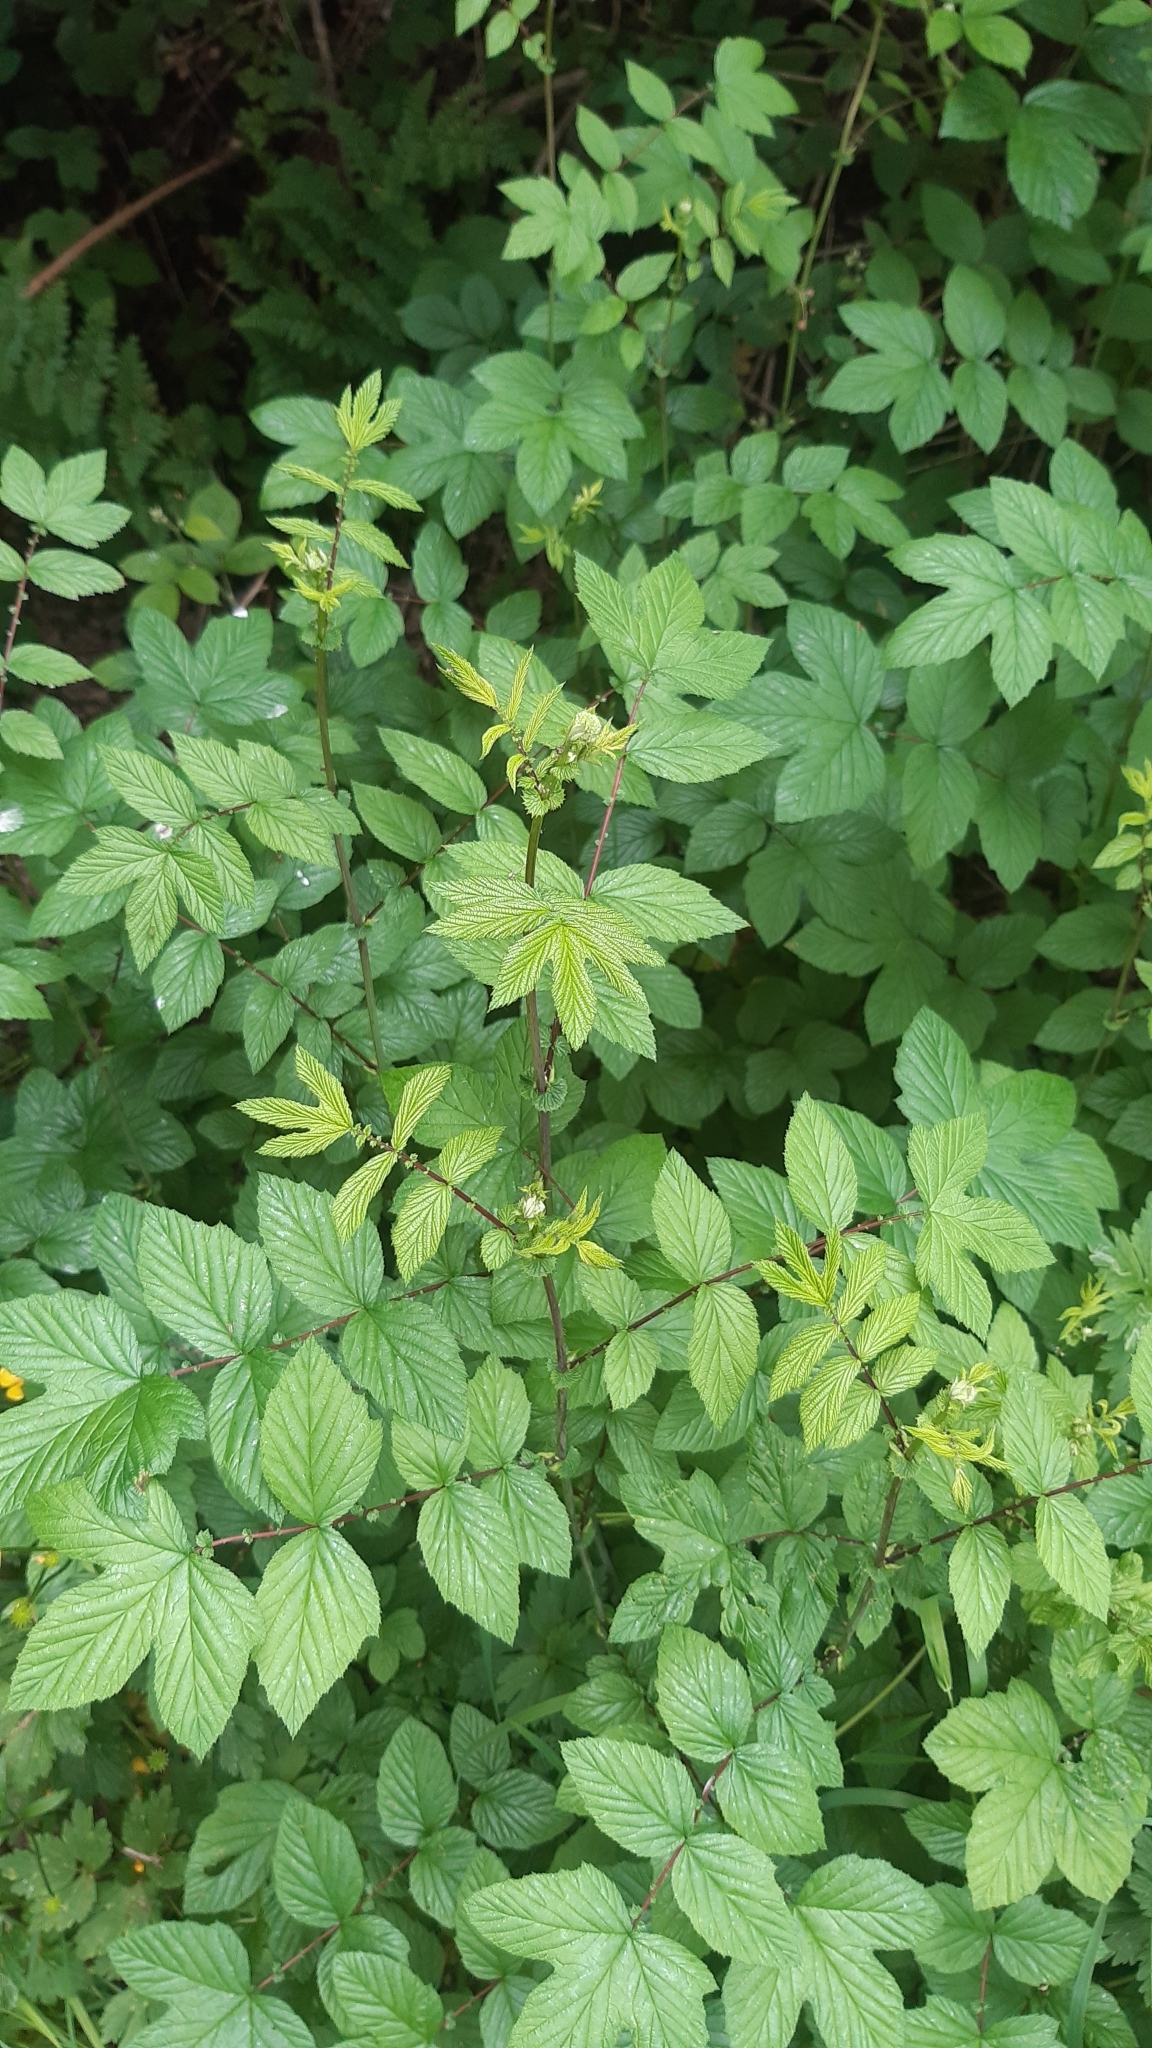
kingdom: Plantae
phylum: Tracheophyta
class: Magnoliopsida
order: Rosales
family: Rosaceae
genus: Filipendula
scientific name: Filipendula ulmaria
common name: Meadowsweet
